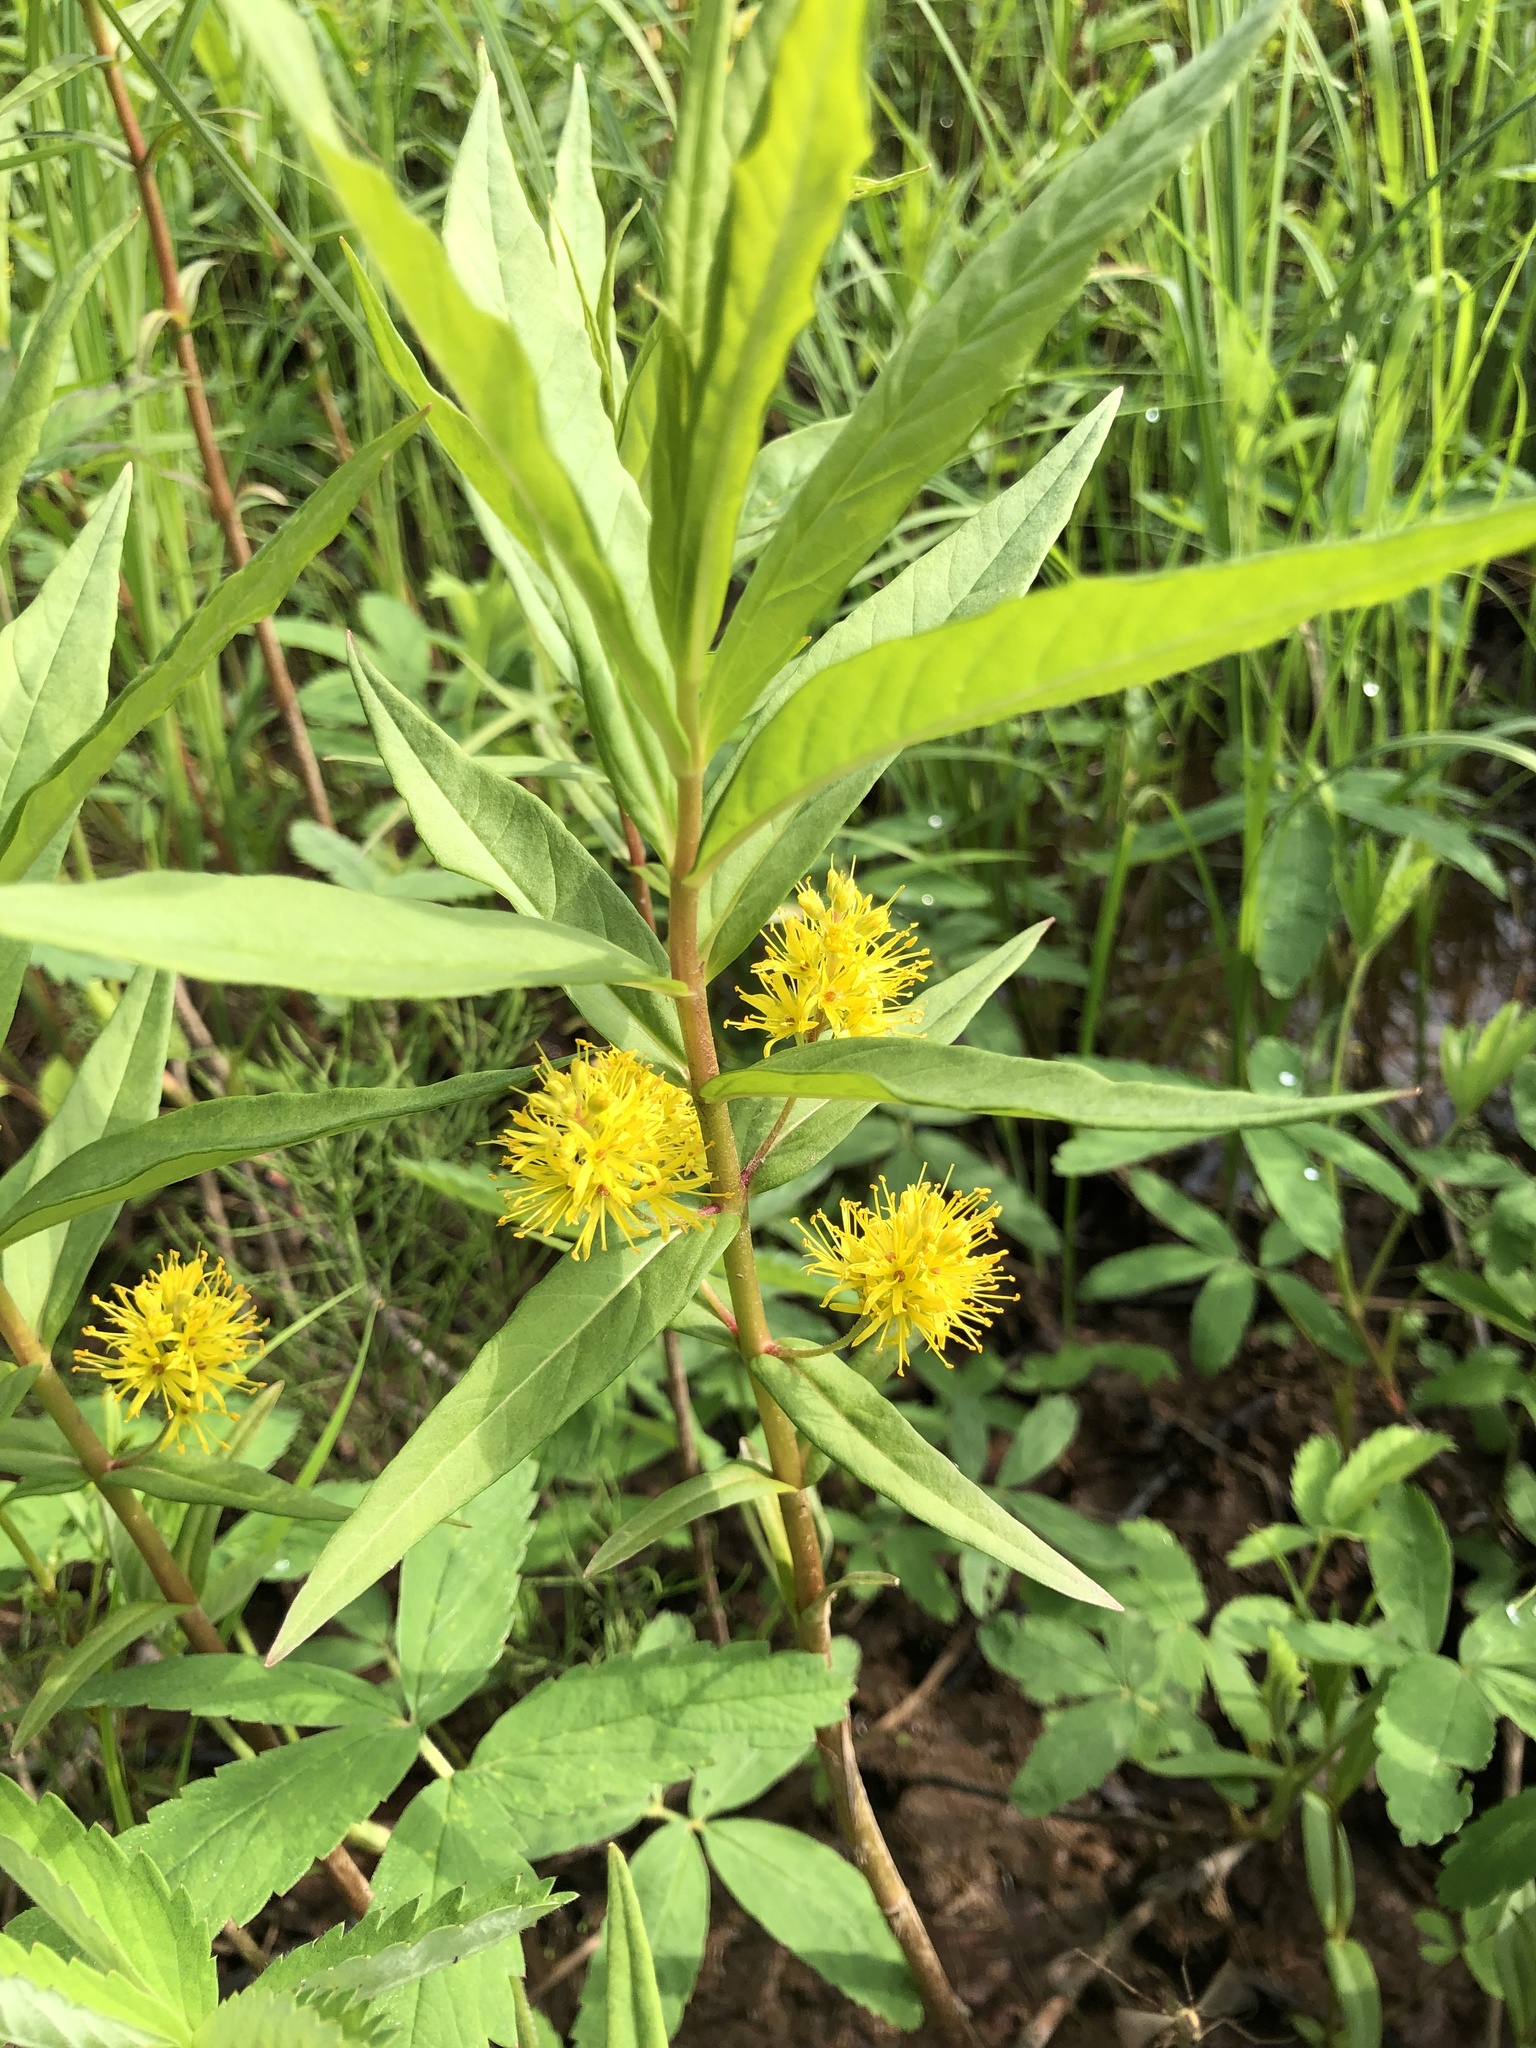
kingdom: Plantae
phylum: Tracheophyta
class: Magnoliopsida
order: Ericales
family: Primulaceae
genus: Lysimachia
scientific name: Lysimachia thyrsiflora
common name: Tufted loosestrife
